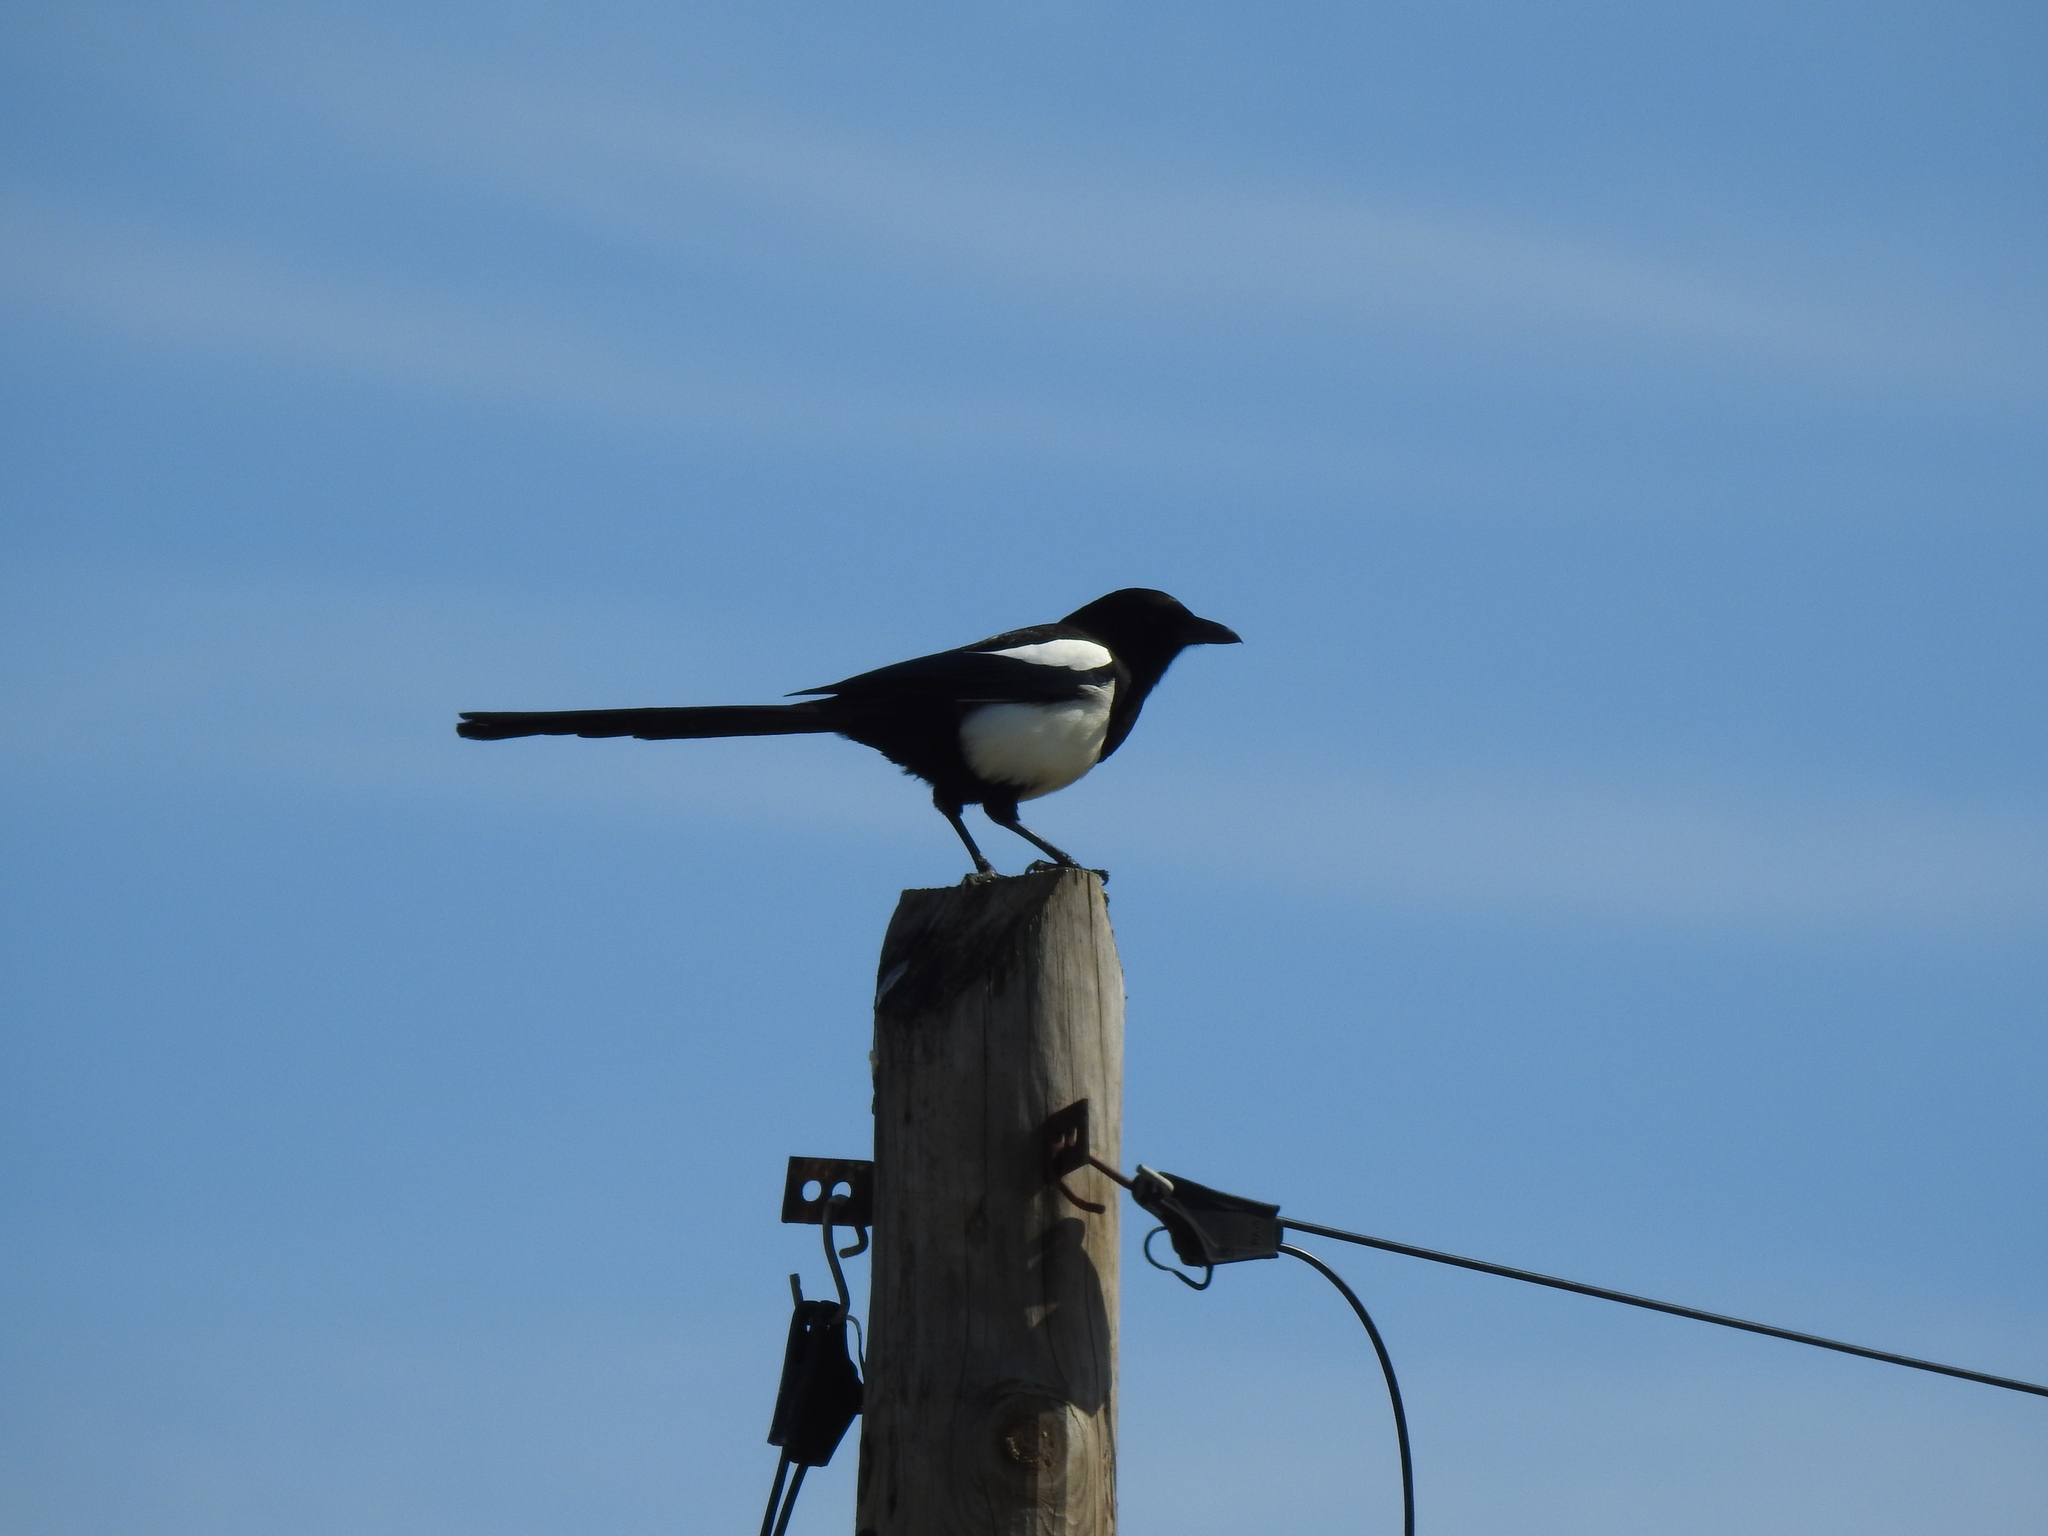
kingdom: Animalia
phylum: Chordata
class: Aves
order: Passeriformes
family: Corvidae
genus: Pica
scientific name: Pica pica
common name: Eurasian magpie
